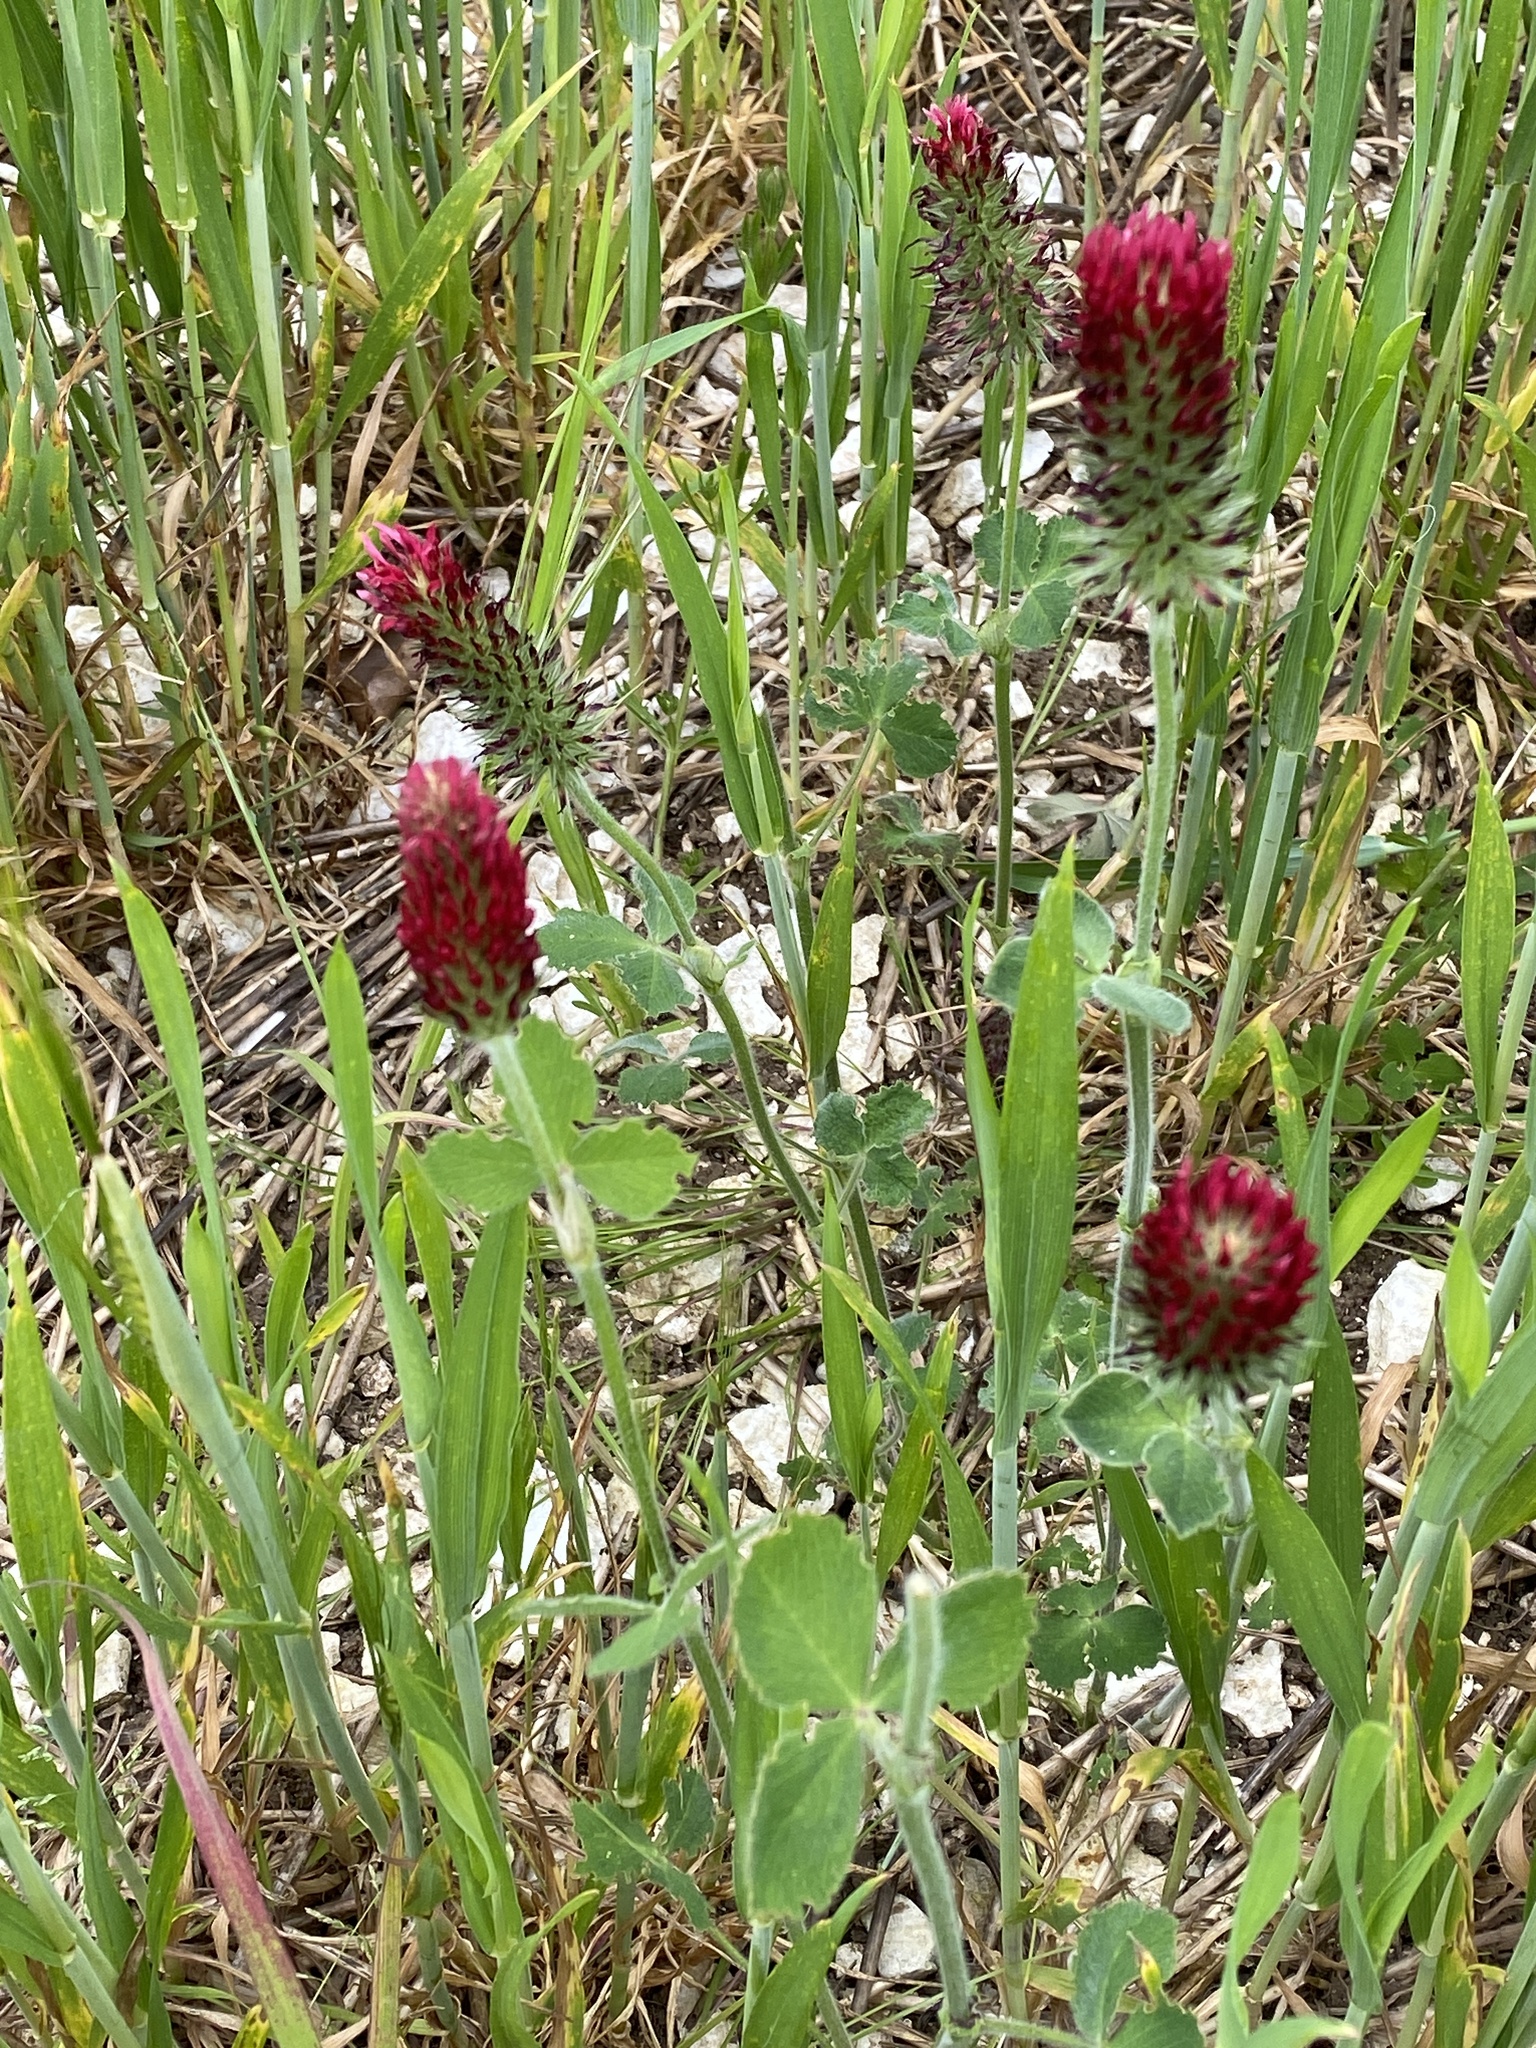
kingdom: Plantae
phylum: Tracheophyta
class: Magnoliopsida
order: Fabales
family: Fabaceae
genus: Trifolium
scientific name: Trifolium incarnatum
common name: Crimson clover
